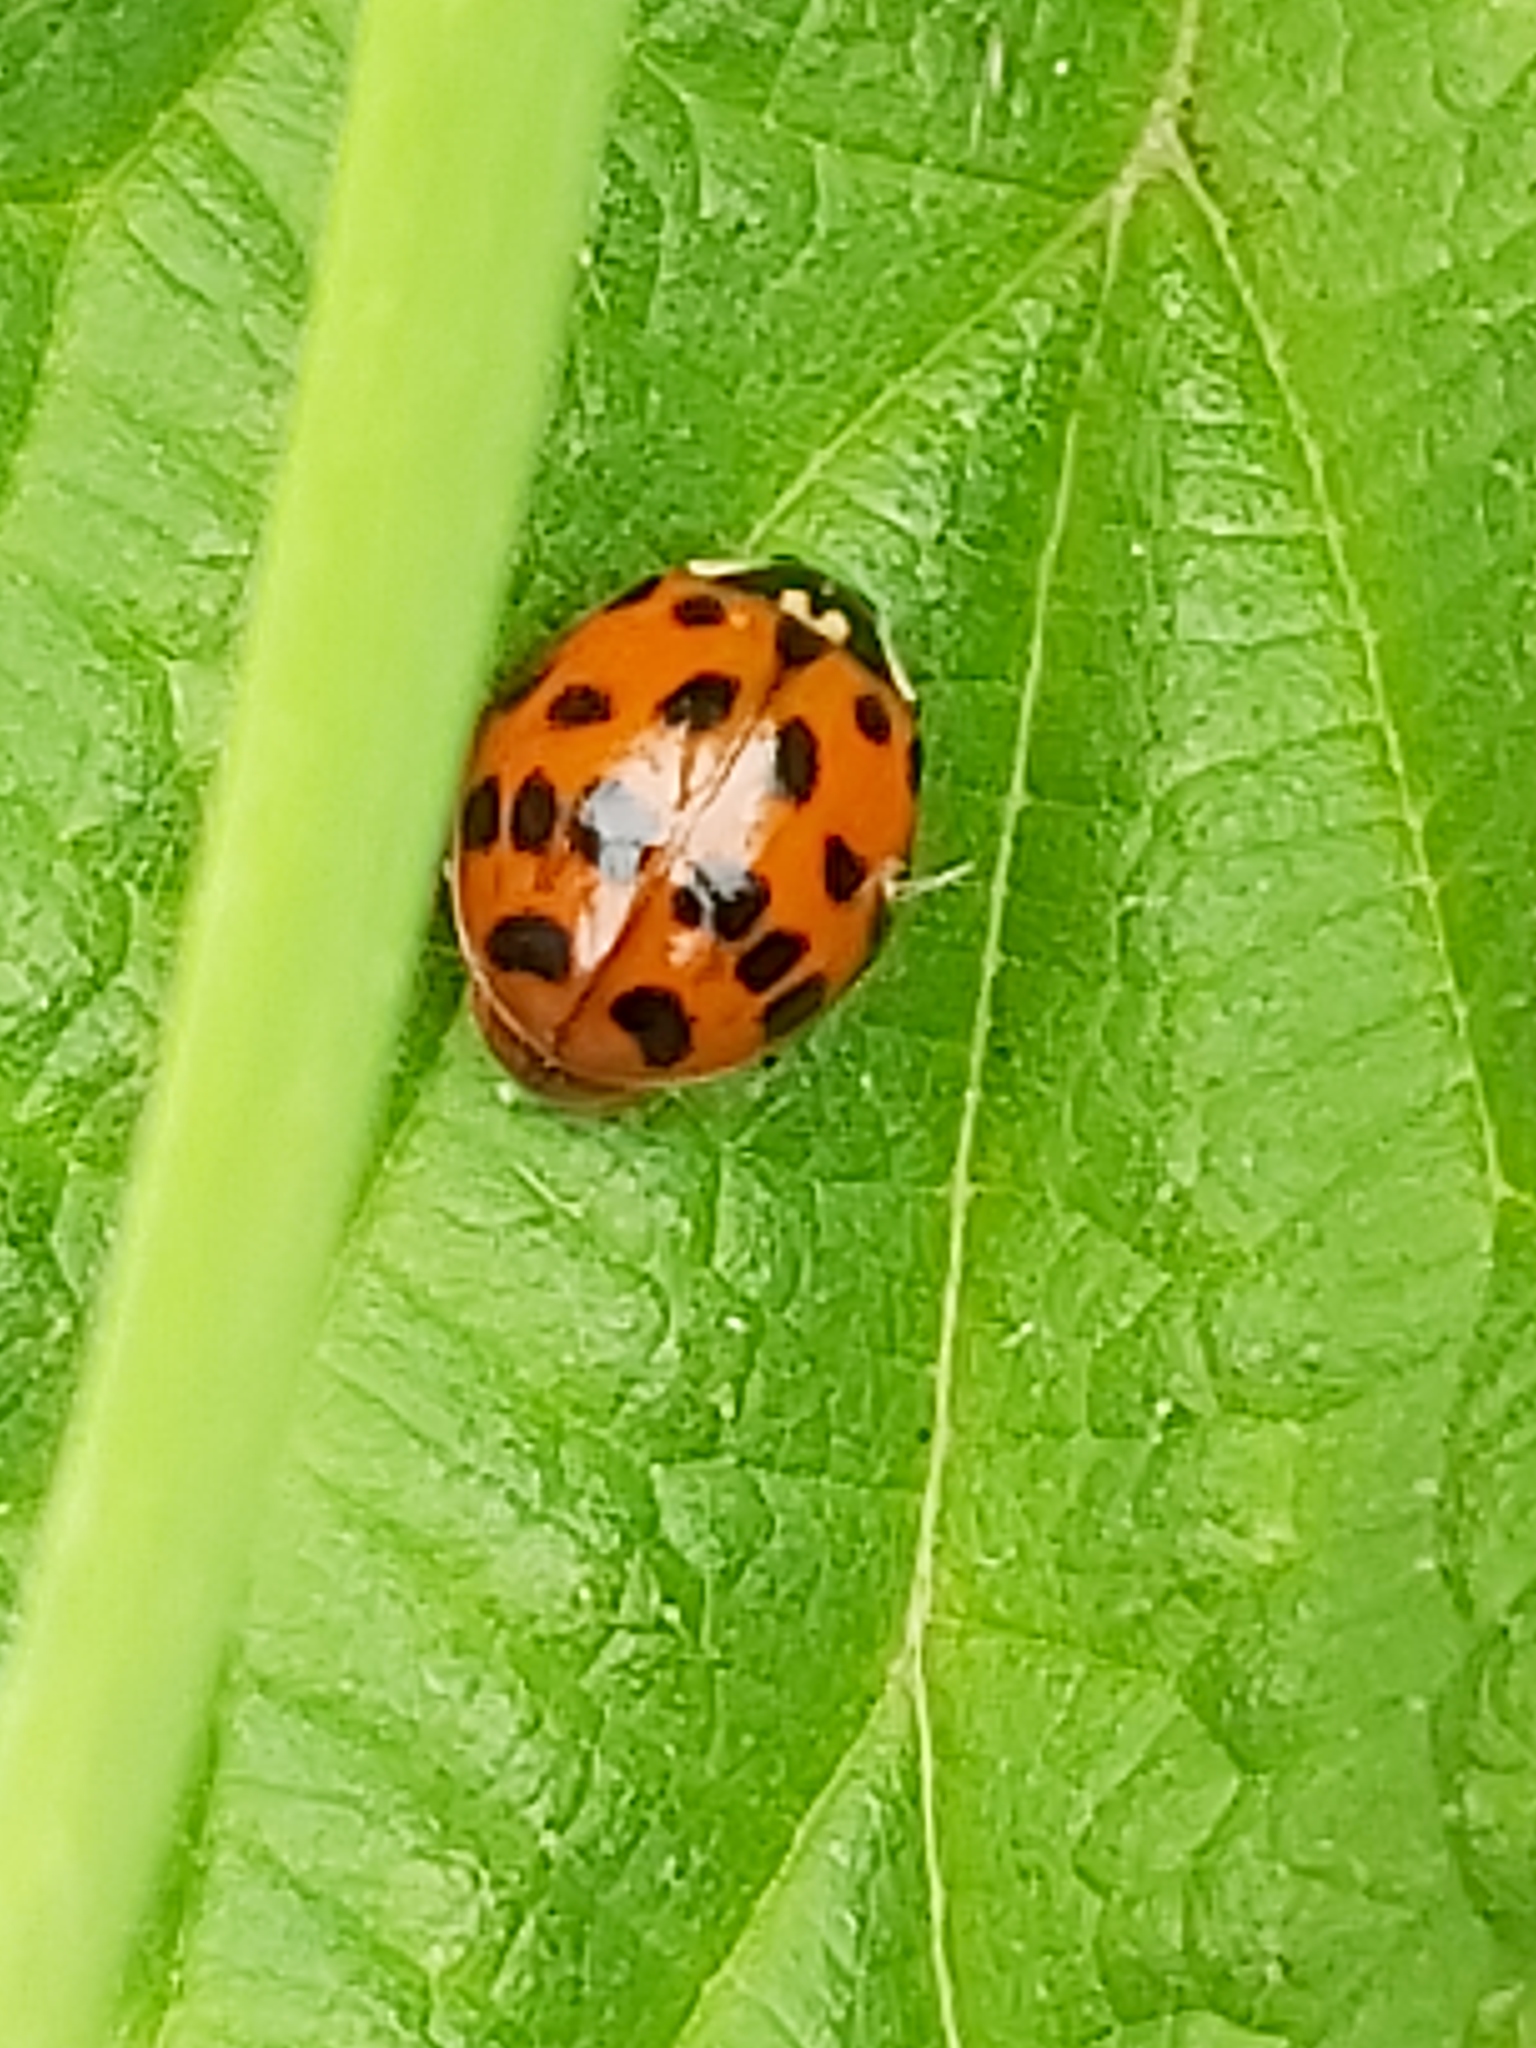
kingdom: Animalia
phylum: Arthropoda
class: Insecta
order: Coleoptera
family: Coccinellidae
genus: Harmonia
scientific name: Harmonia axyridis
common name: Harlequin ladybird
